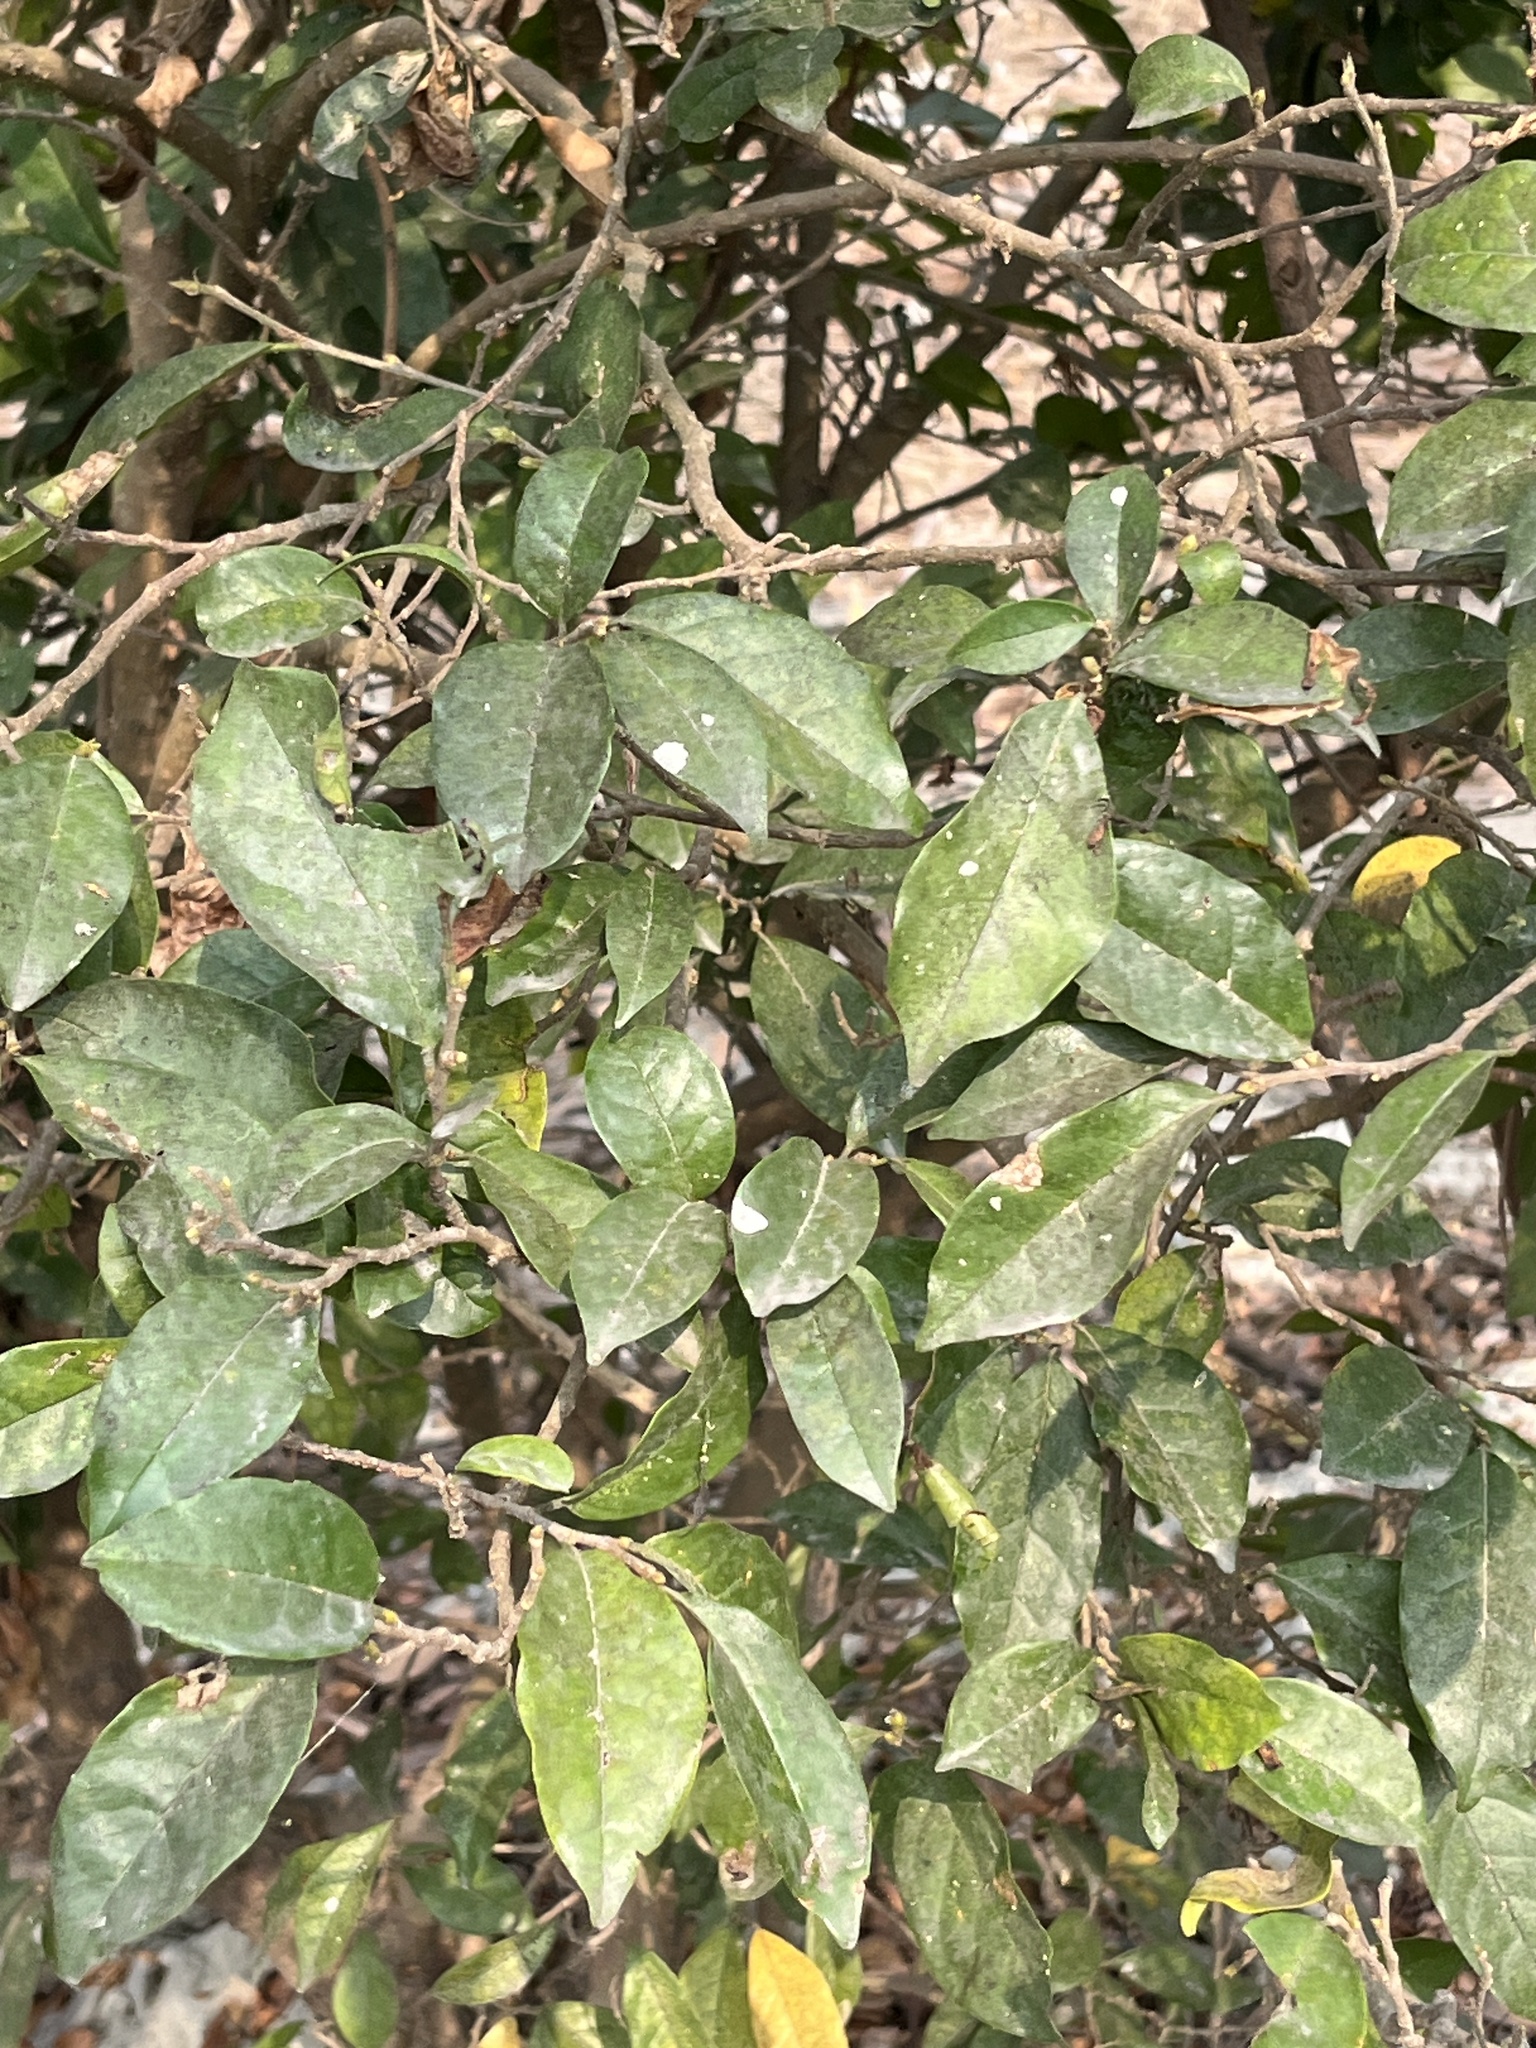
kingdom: Plantae
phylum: Tracheophyta
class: Magnoliopsida
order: Malpighiales
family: Phyllanthaceae
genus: Antidesma
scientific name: Antidesma montanum
